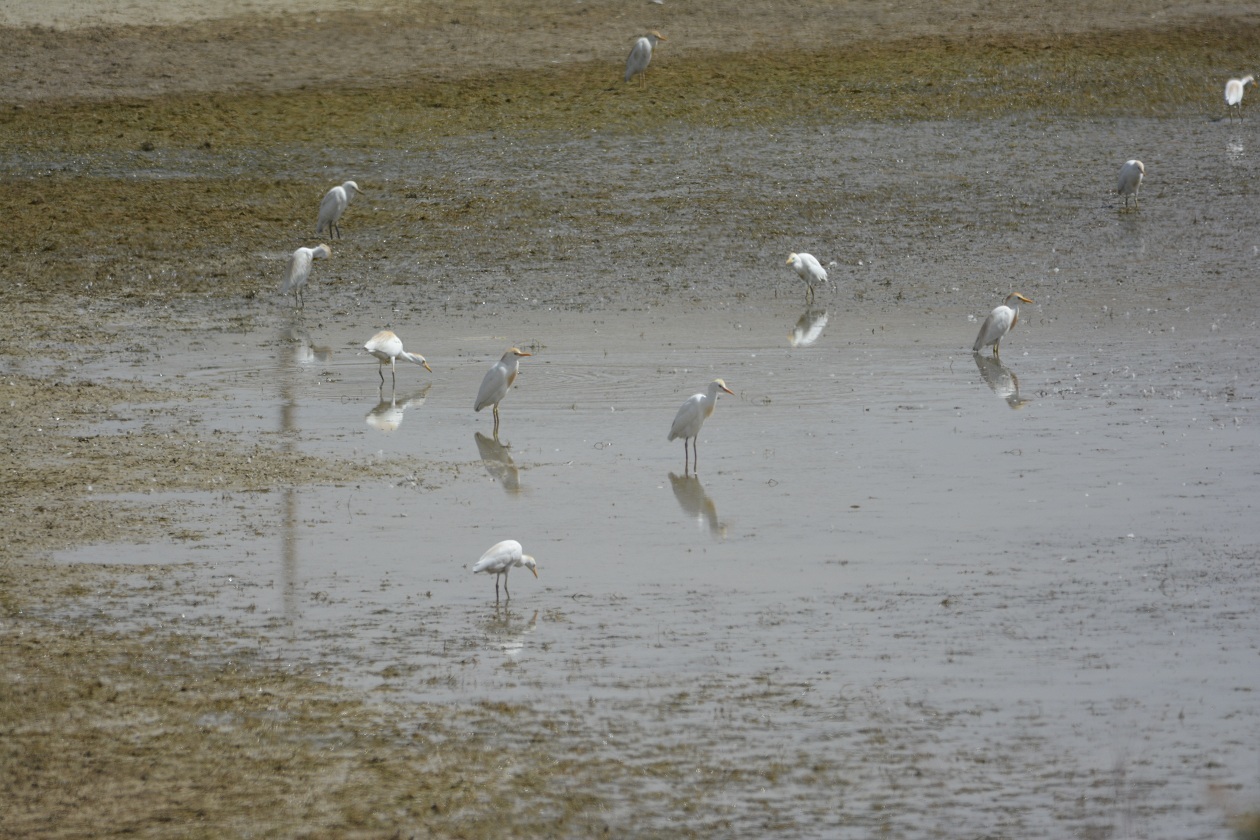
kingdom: Animalia
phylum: Chordata
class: Aves
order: Pelecaniformes
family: Ardeidae
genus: Bubulcus
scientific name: Bubulcus ibis
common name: Cattle egret
